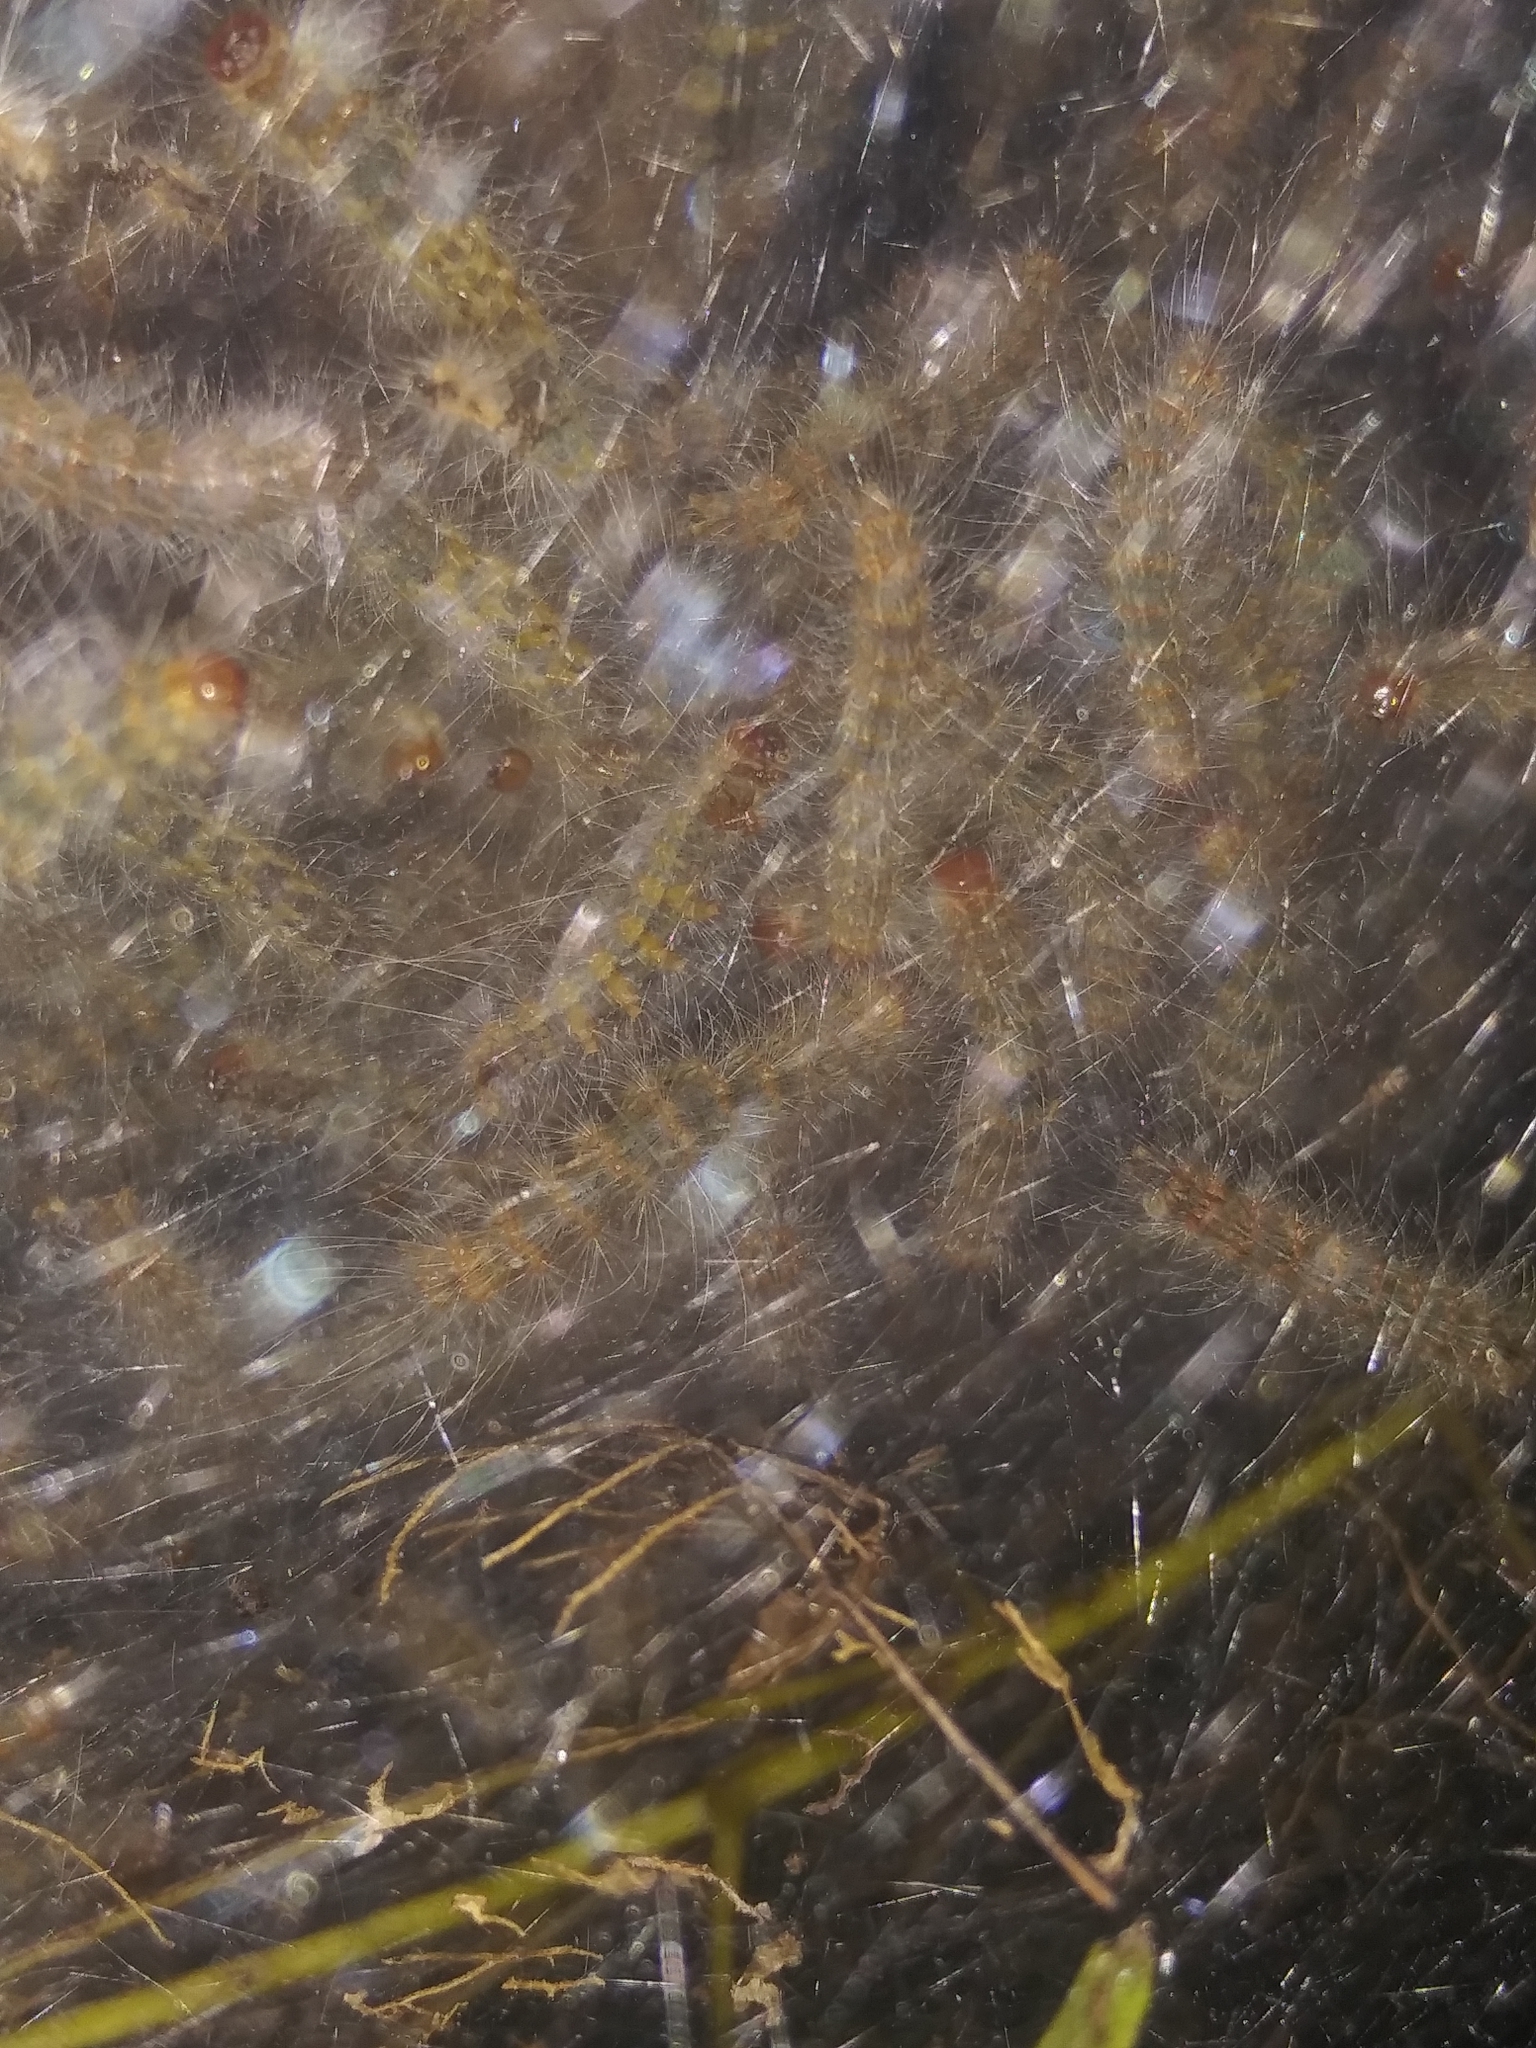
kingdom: Animalia
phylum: Arthropoda
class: Insecta
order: Lepidoptera
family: Erebidae
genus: Hyphantria
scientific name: Hyphantria cunea
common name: American white moth
